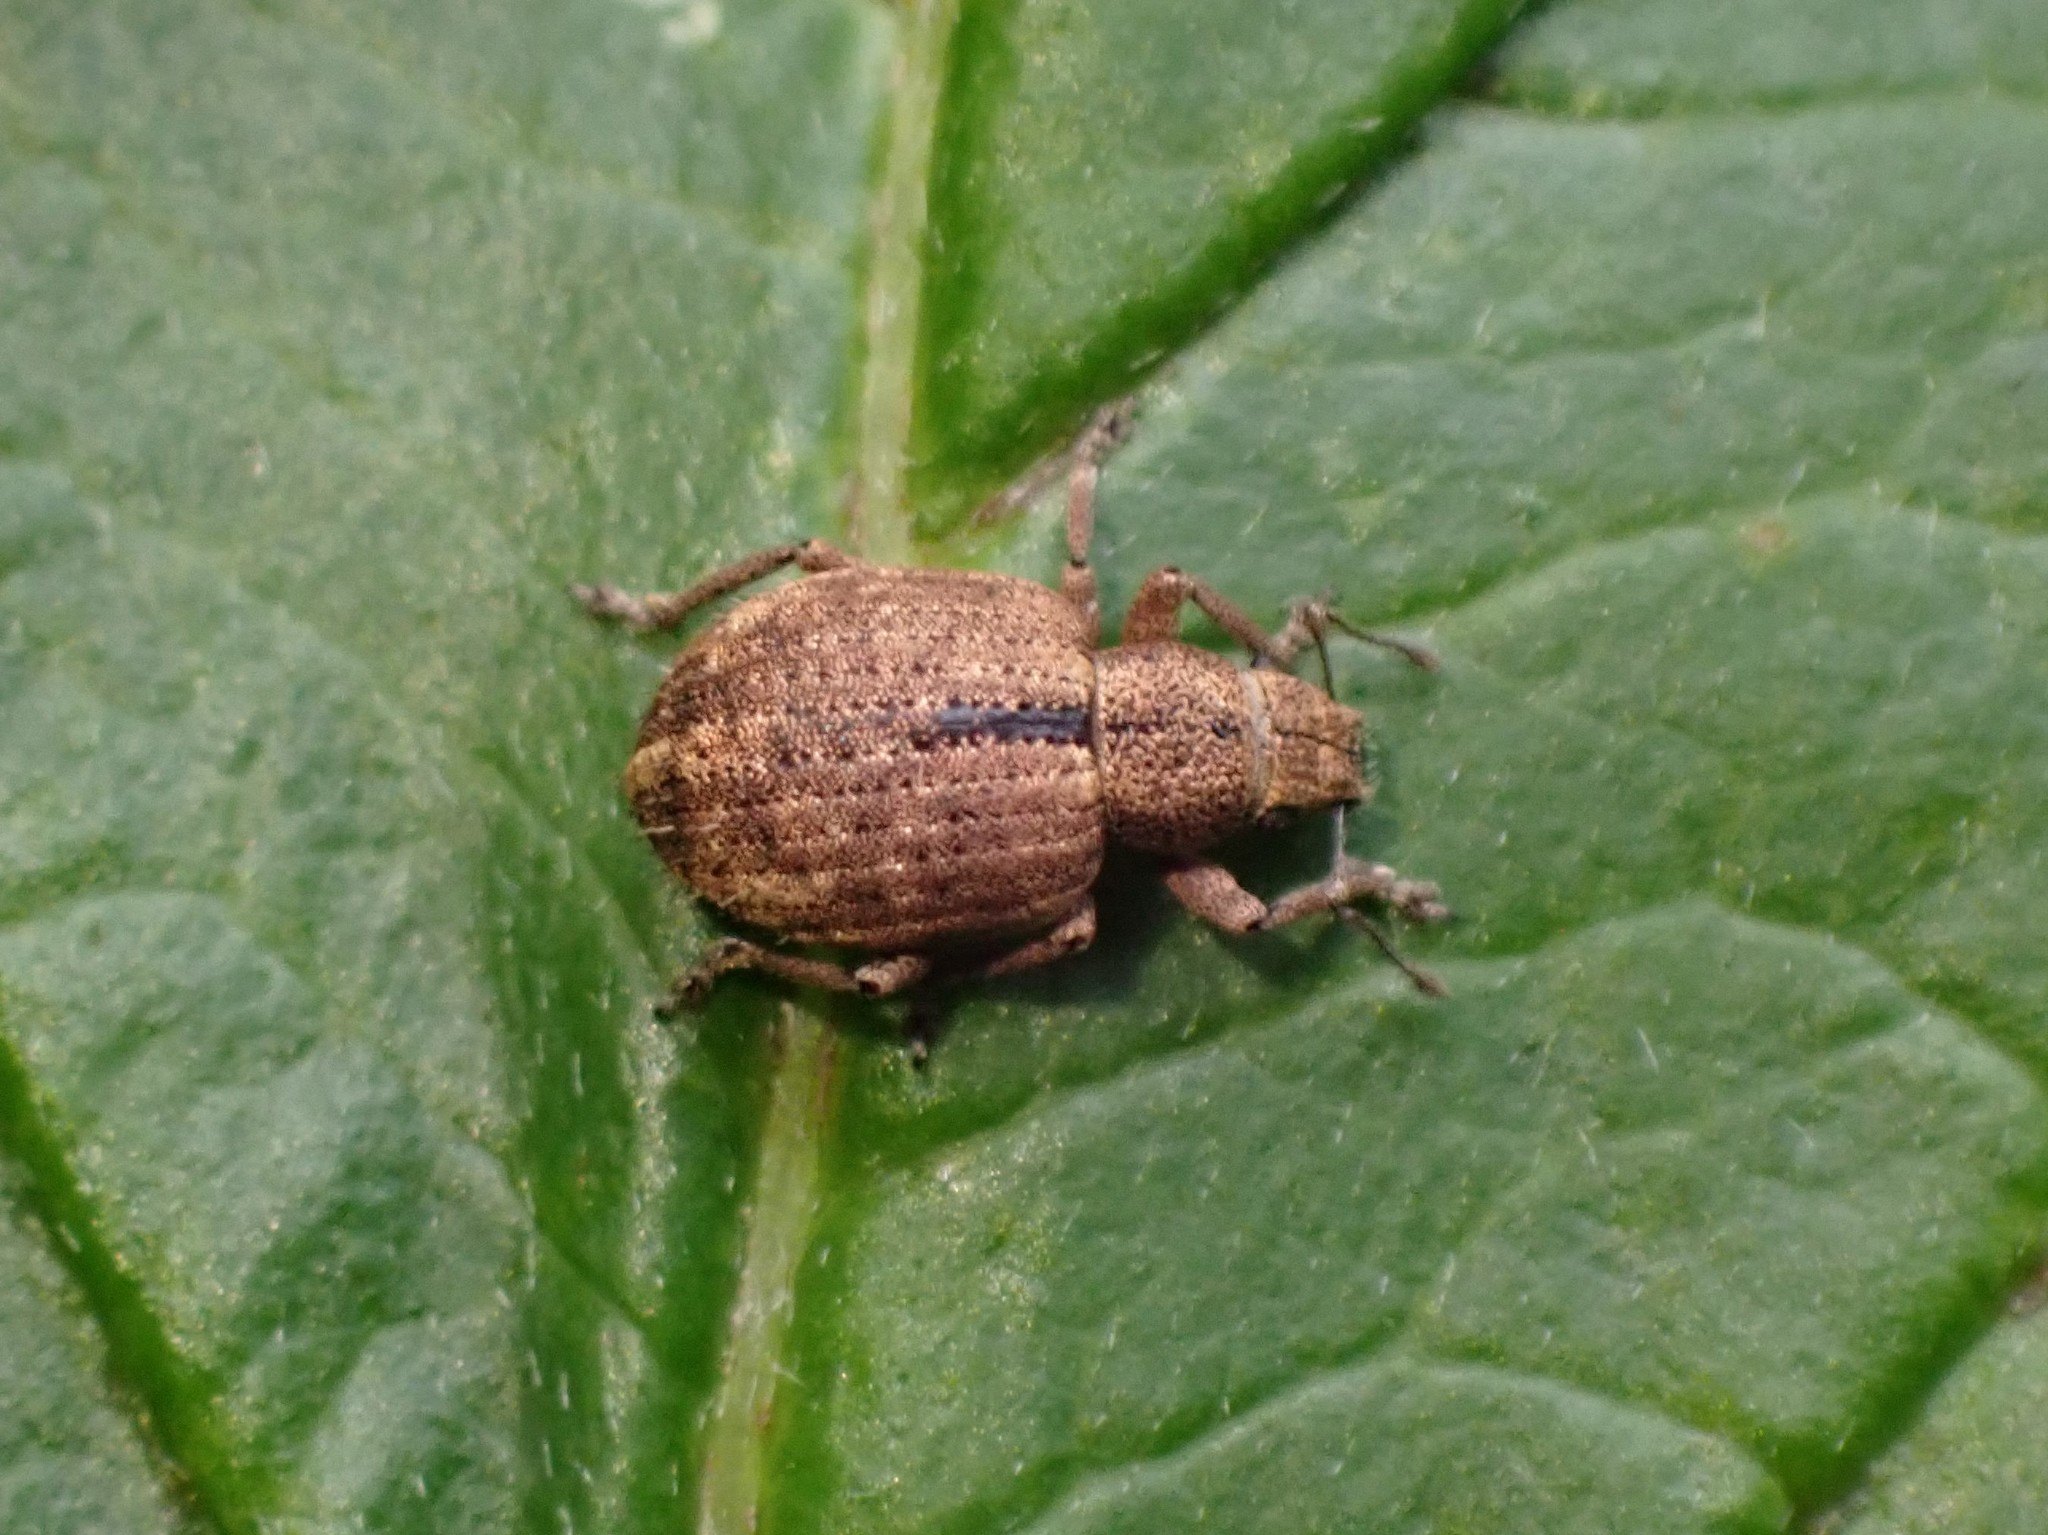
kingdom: Animalia
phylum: Arthropoda
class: Insecta
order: Coleoptera
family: Curculionidae
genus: Strophosoma
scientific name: Strophosoma melanogrammum
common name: Weevil
